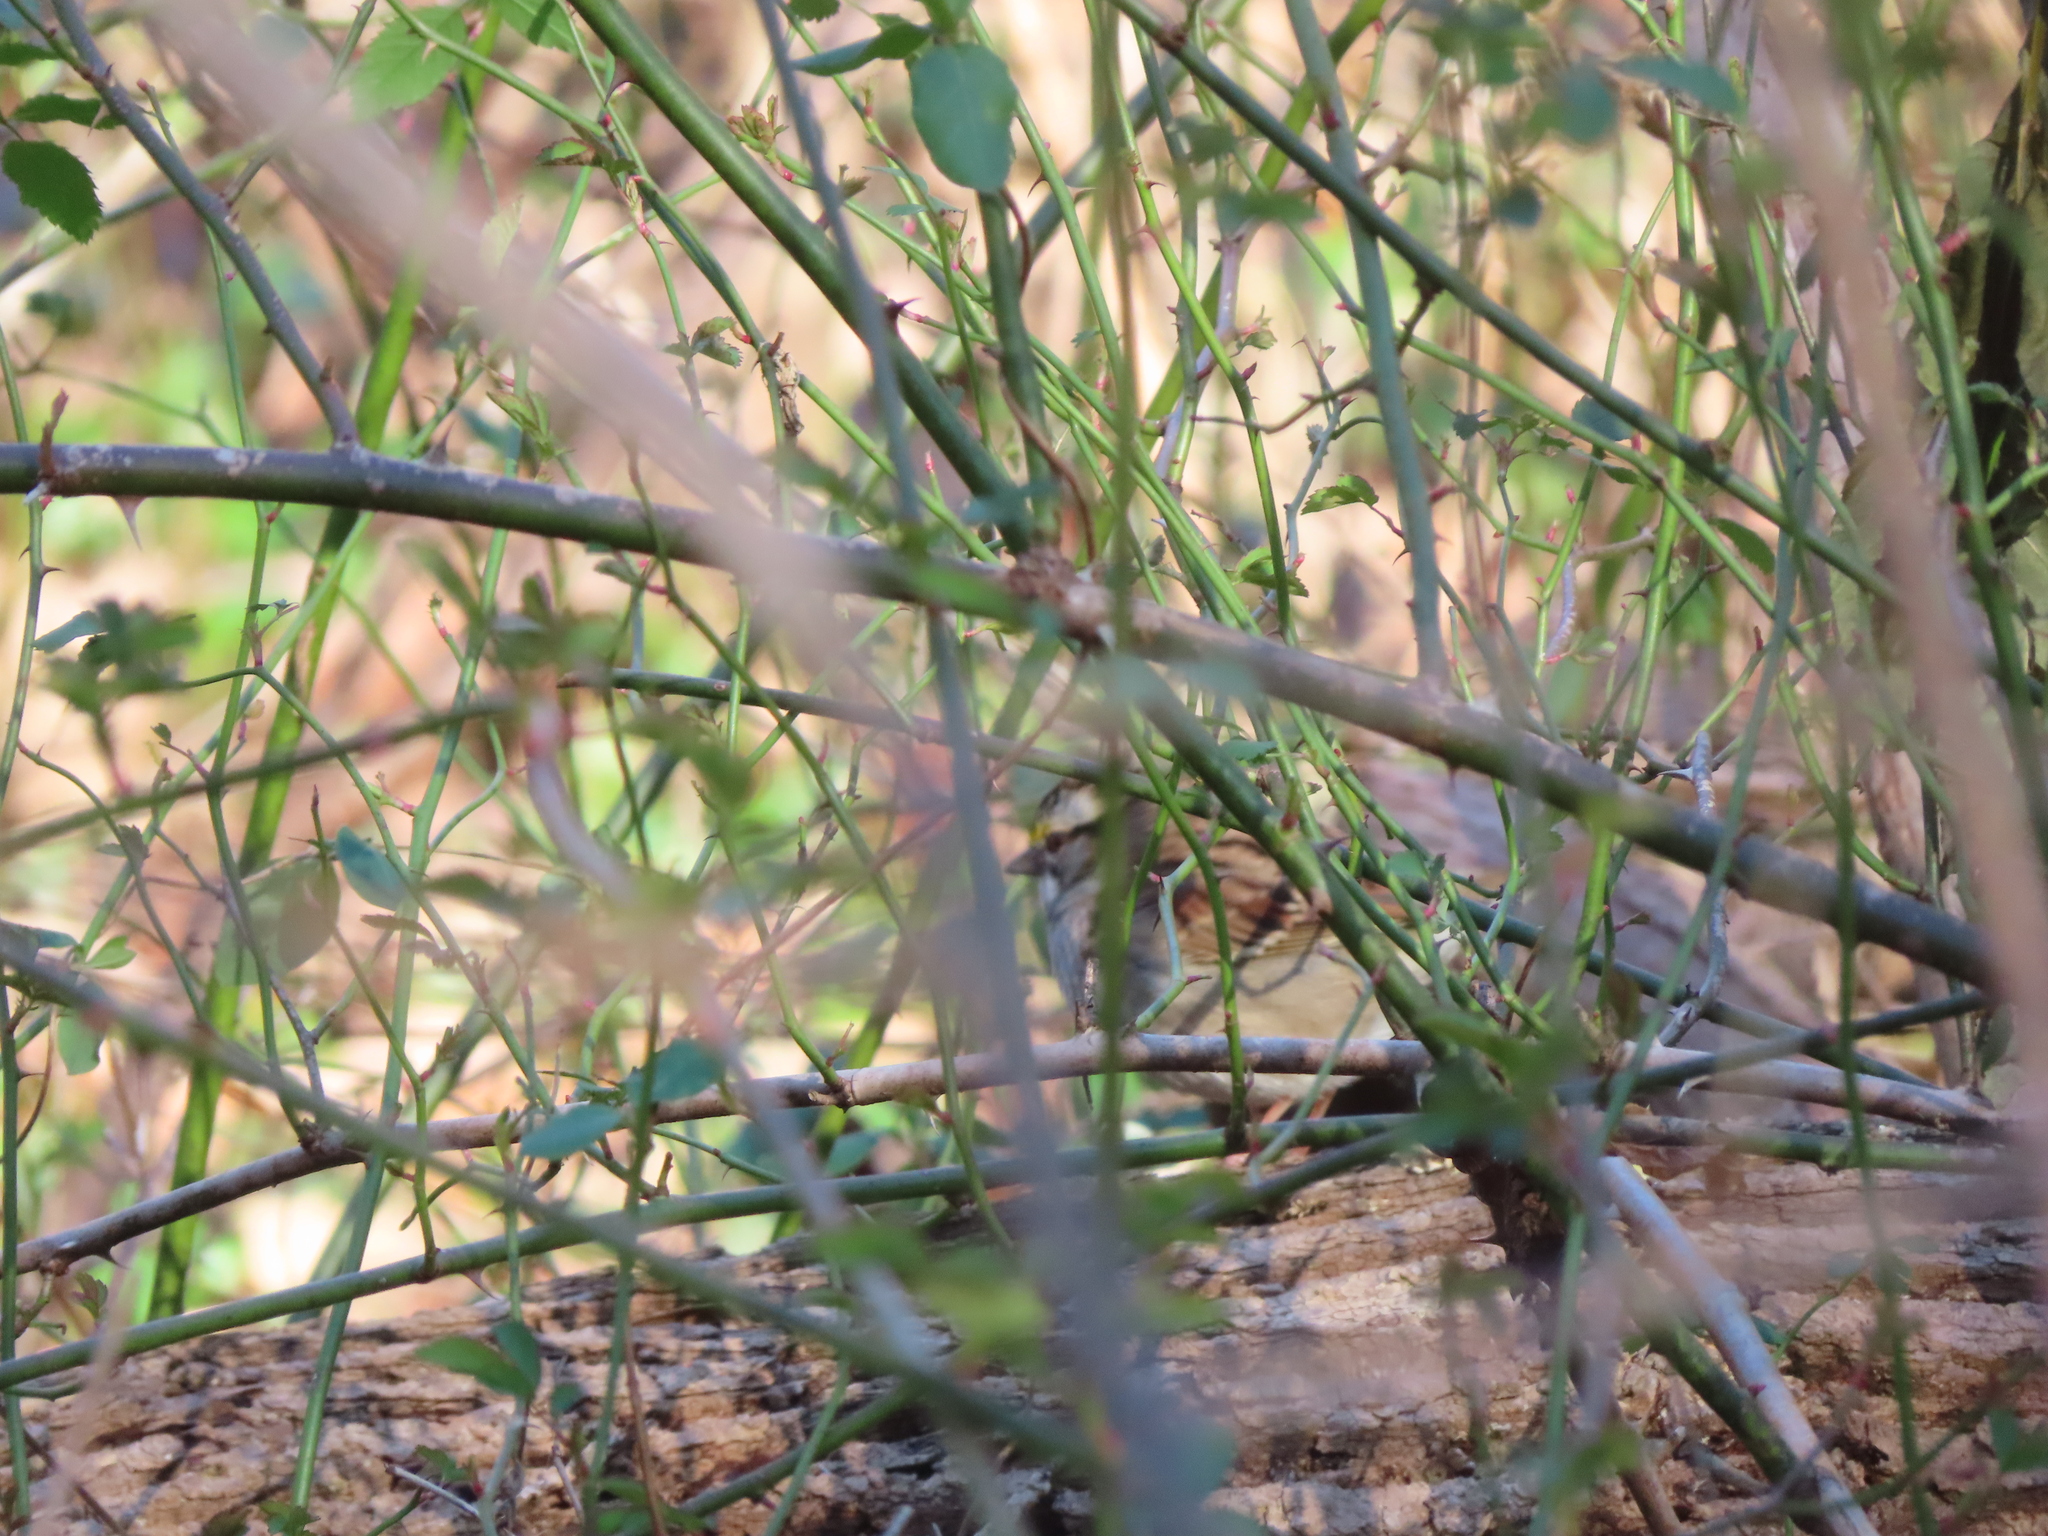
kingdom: Animalia
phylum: Chordata
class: Aves
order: Passeriformes
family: Passerellidae
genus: Zonotrichia
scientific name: Zonotrichia albicollis
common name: White-throated sparrow
